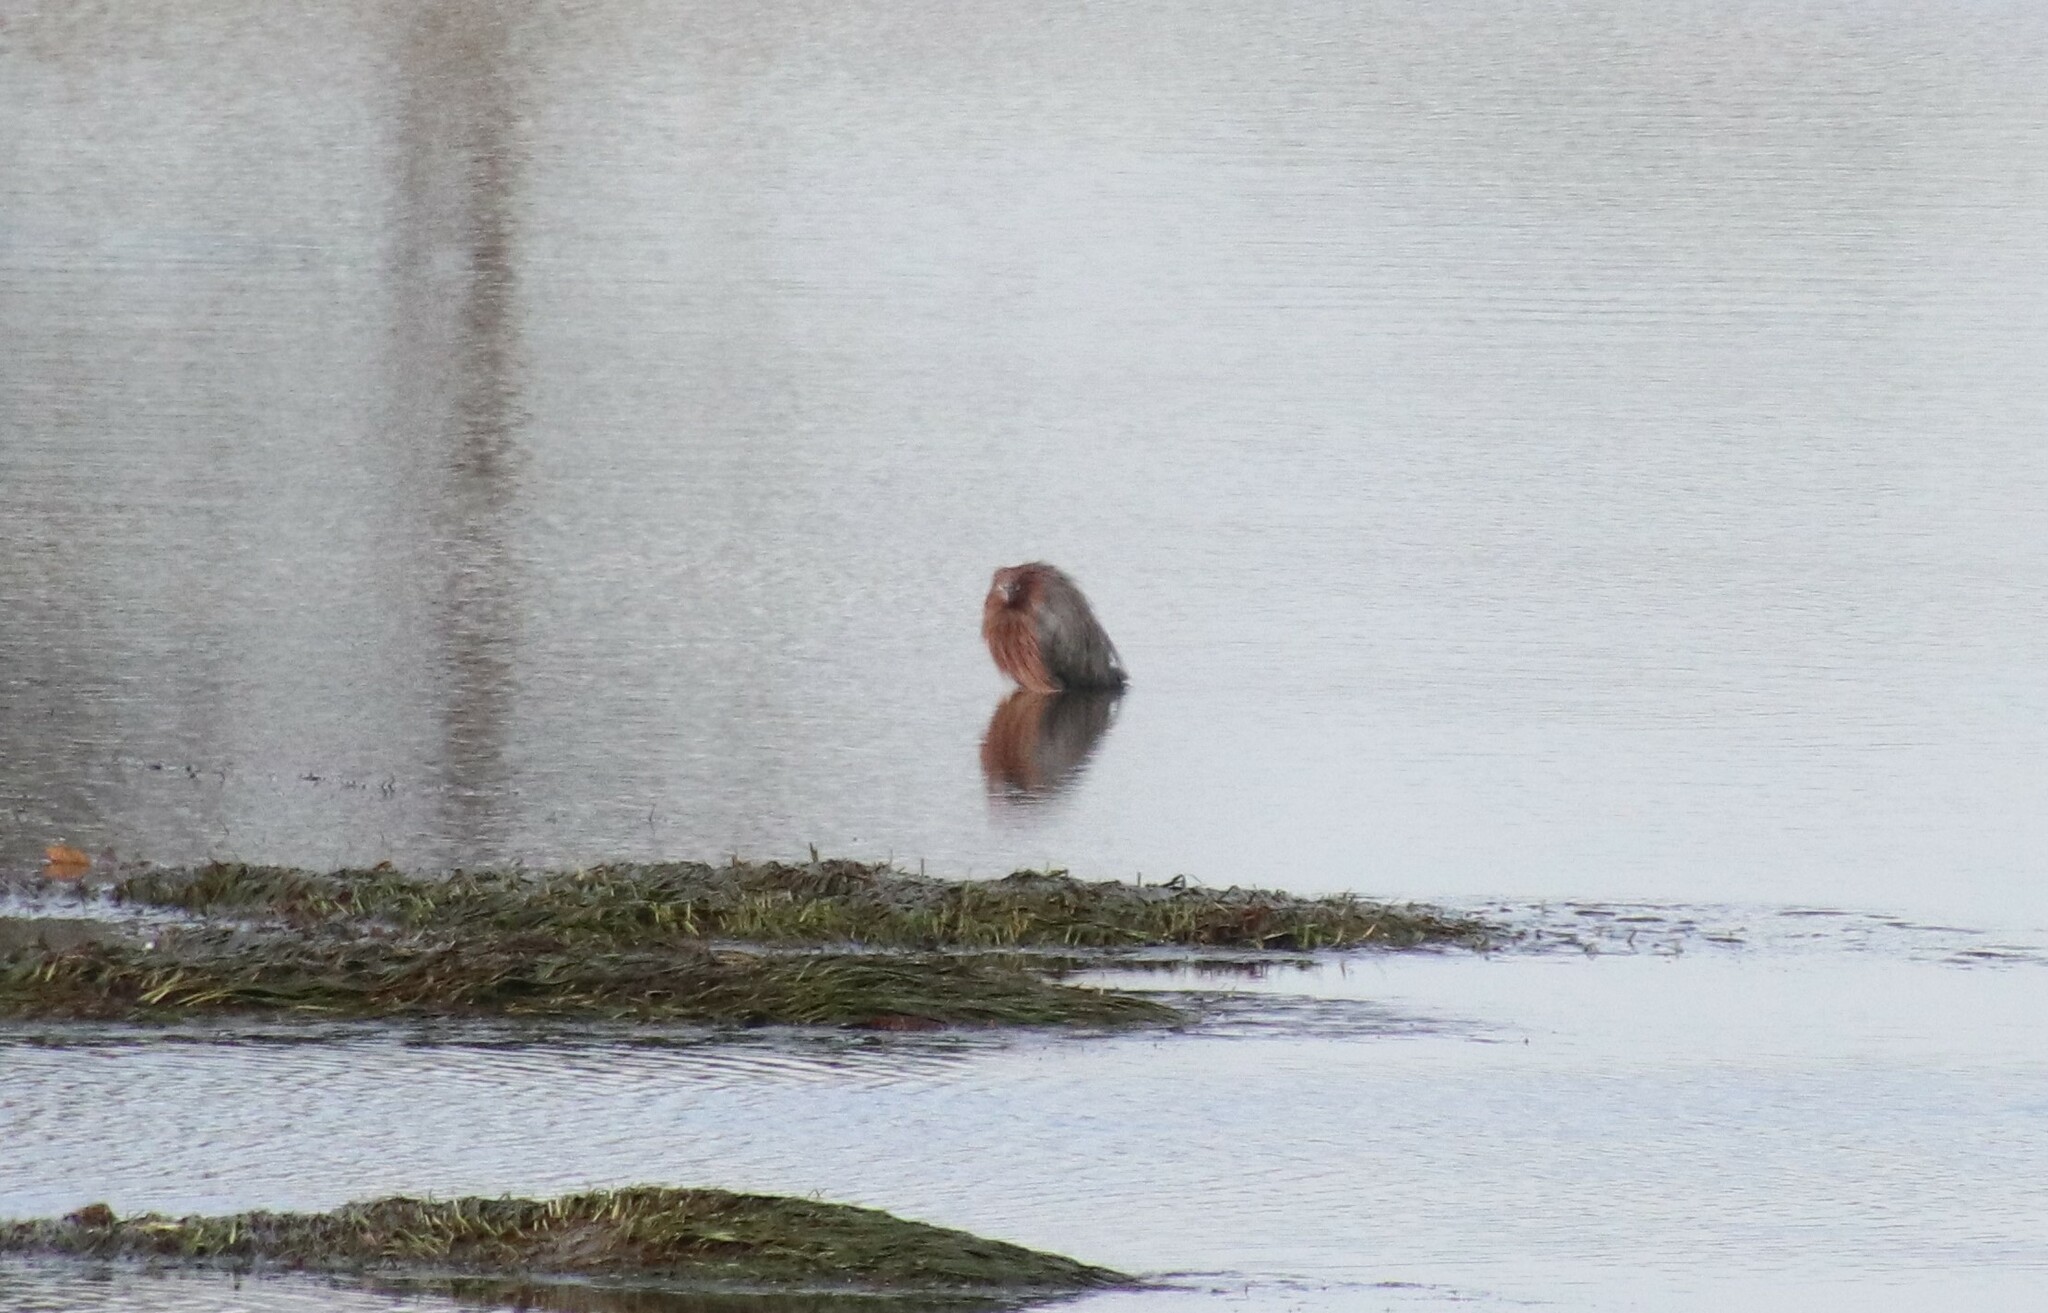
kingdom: Animalia
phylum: Chordata
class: Aves
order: Pelecaniformes
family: Ardeidae
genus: Egretta
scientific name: Egretta rufescens
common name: Reddish egret
